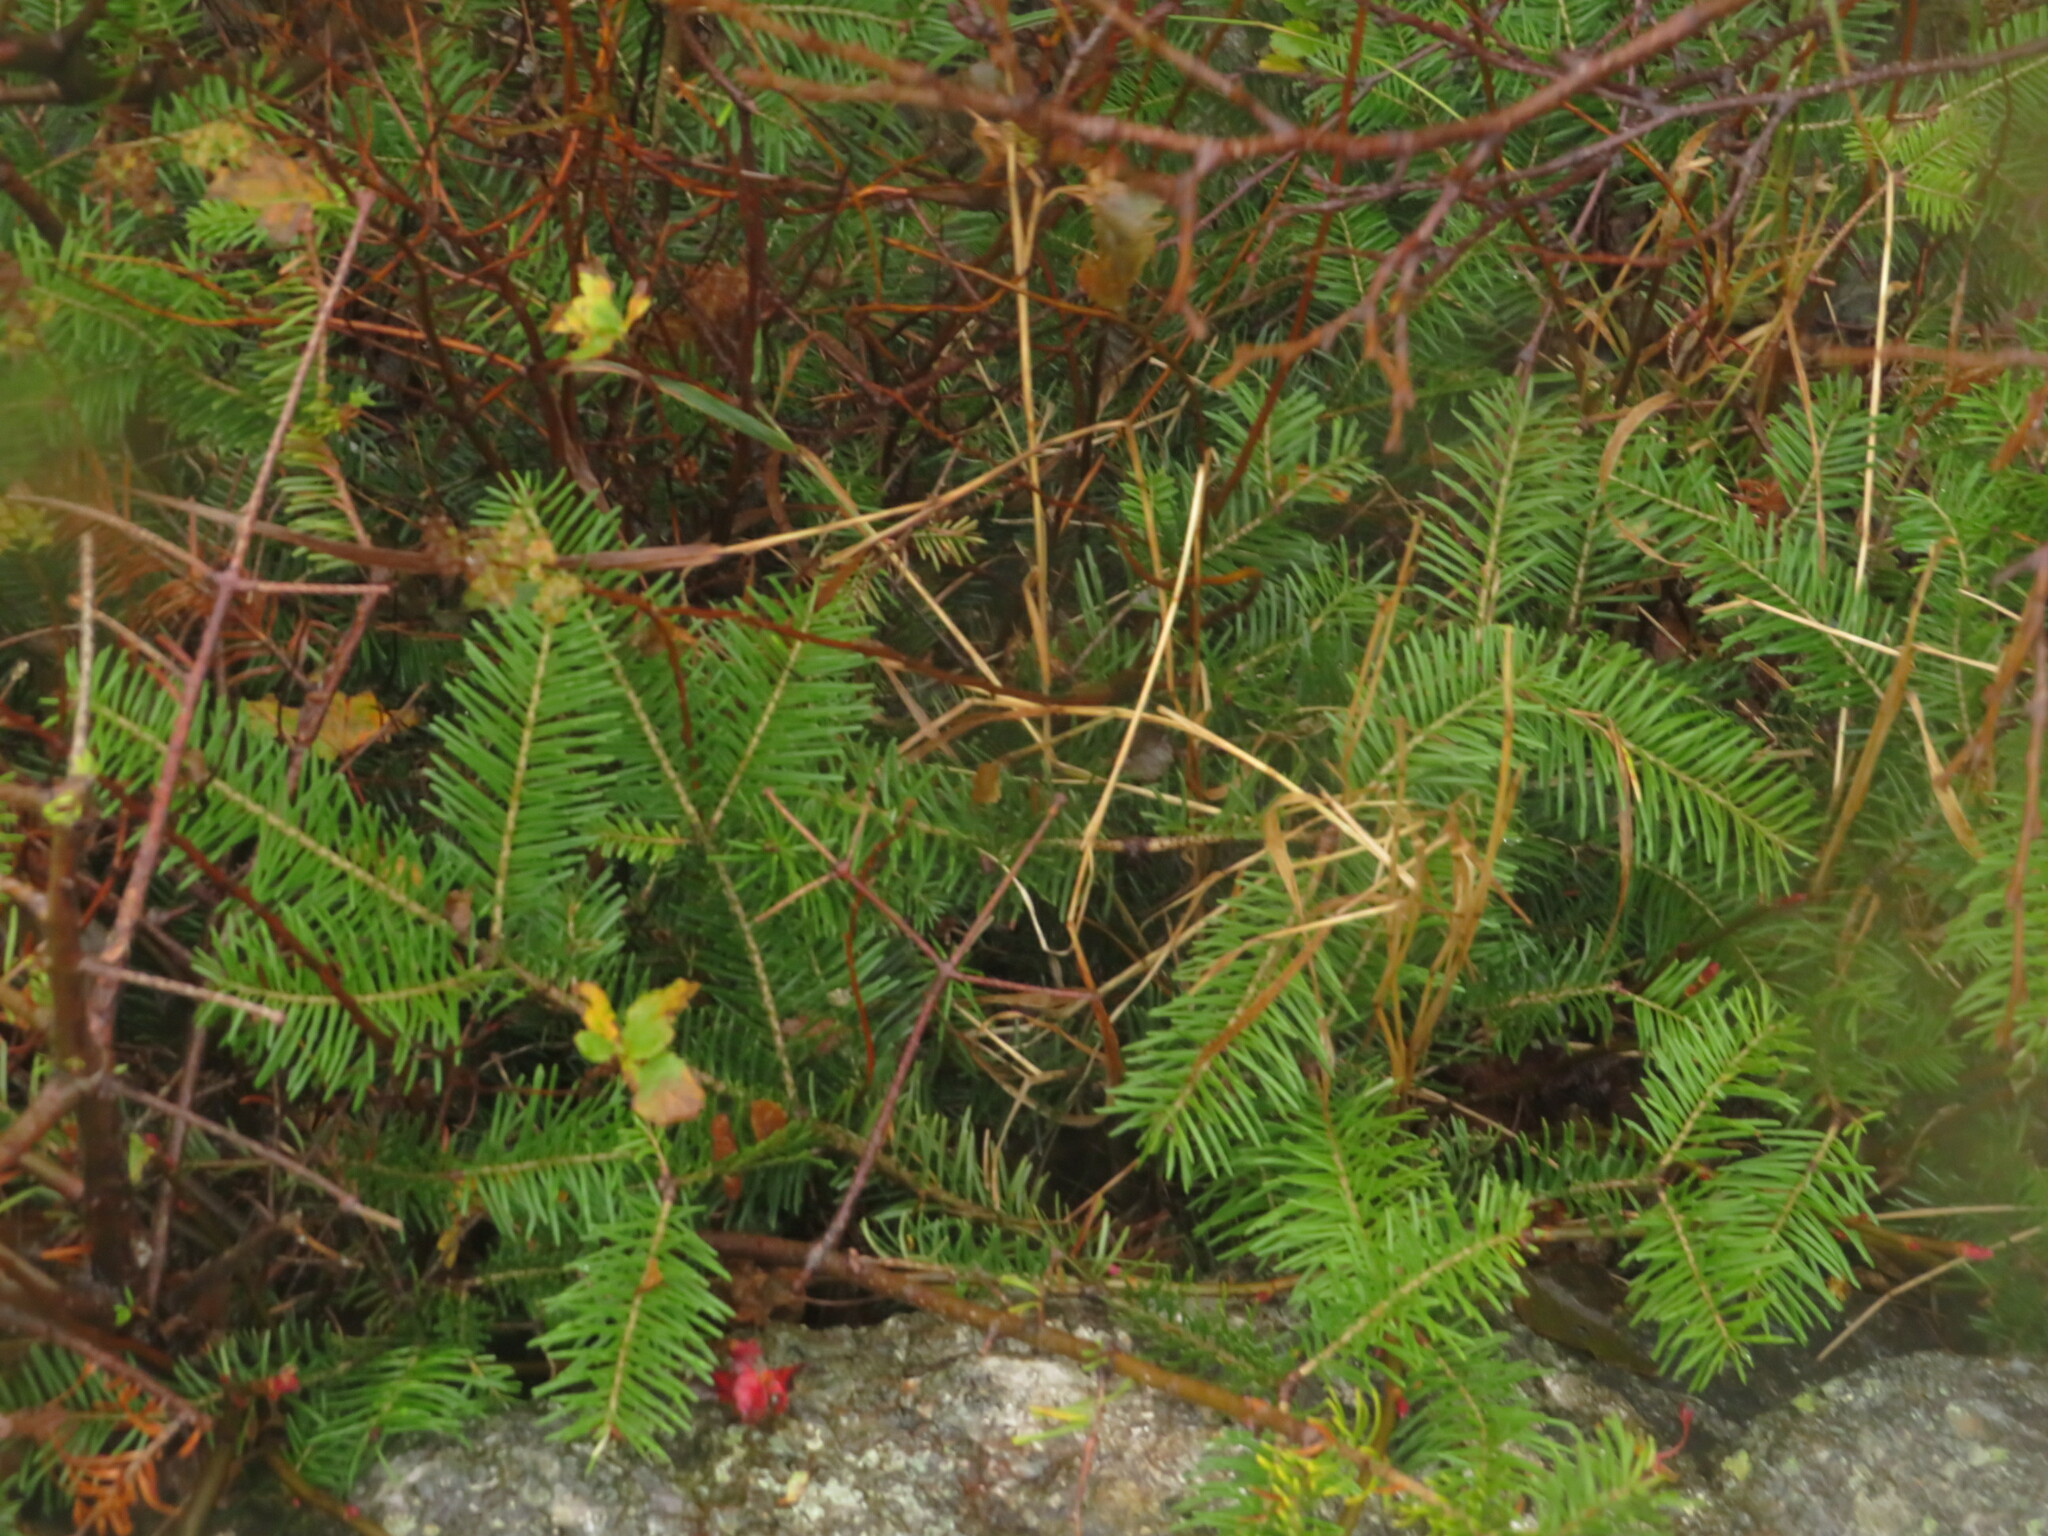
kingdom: Plantae
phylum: Tracheophyta
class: Pinopsida
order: Pinales
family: Pinaceae
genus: Abies
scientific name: Abies balsamea
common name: Balsam fir
